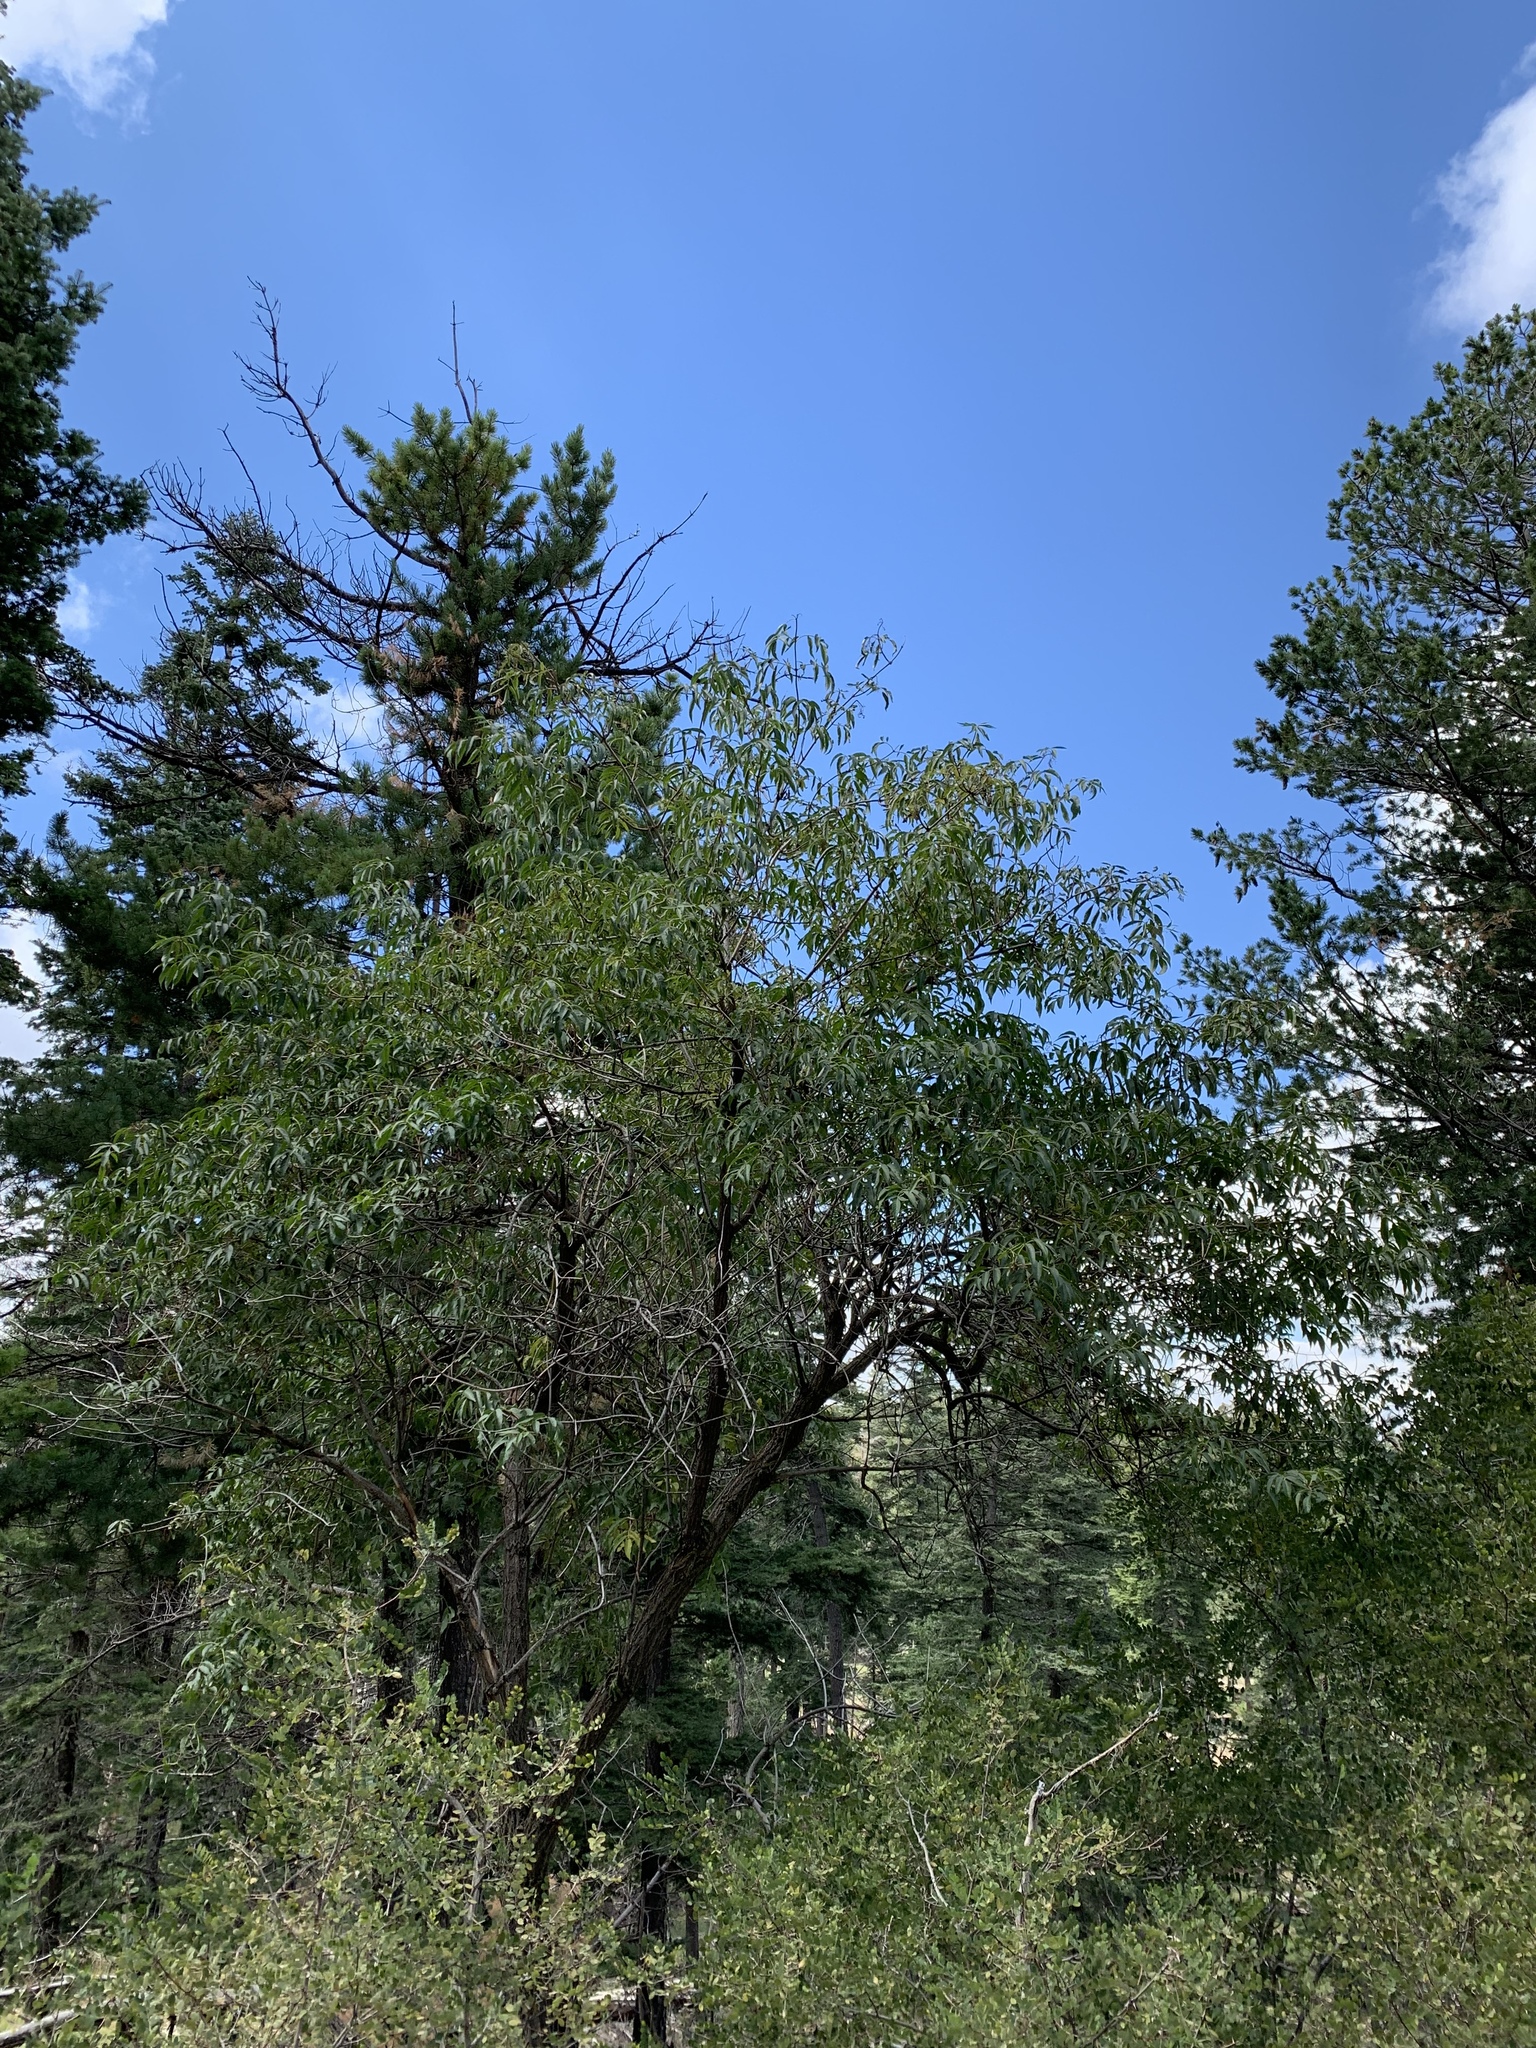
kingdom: Plantae
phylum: Tracheophyta
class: Magnoliopsida
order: Dipsacales
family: Viburnaceae
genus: Sambucus
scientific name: Sambucus cerulea
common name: Blue elder
